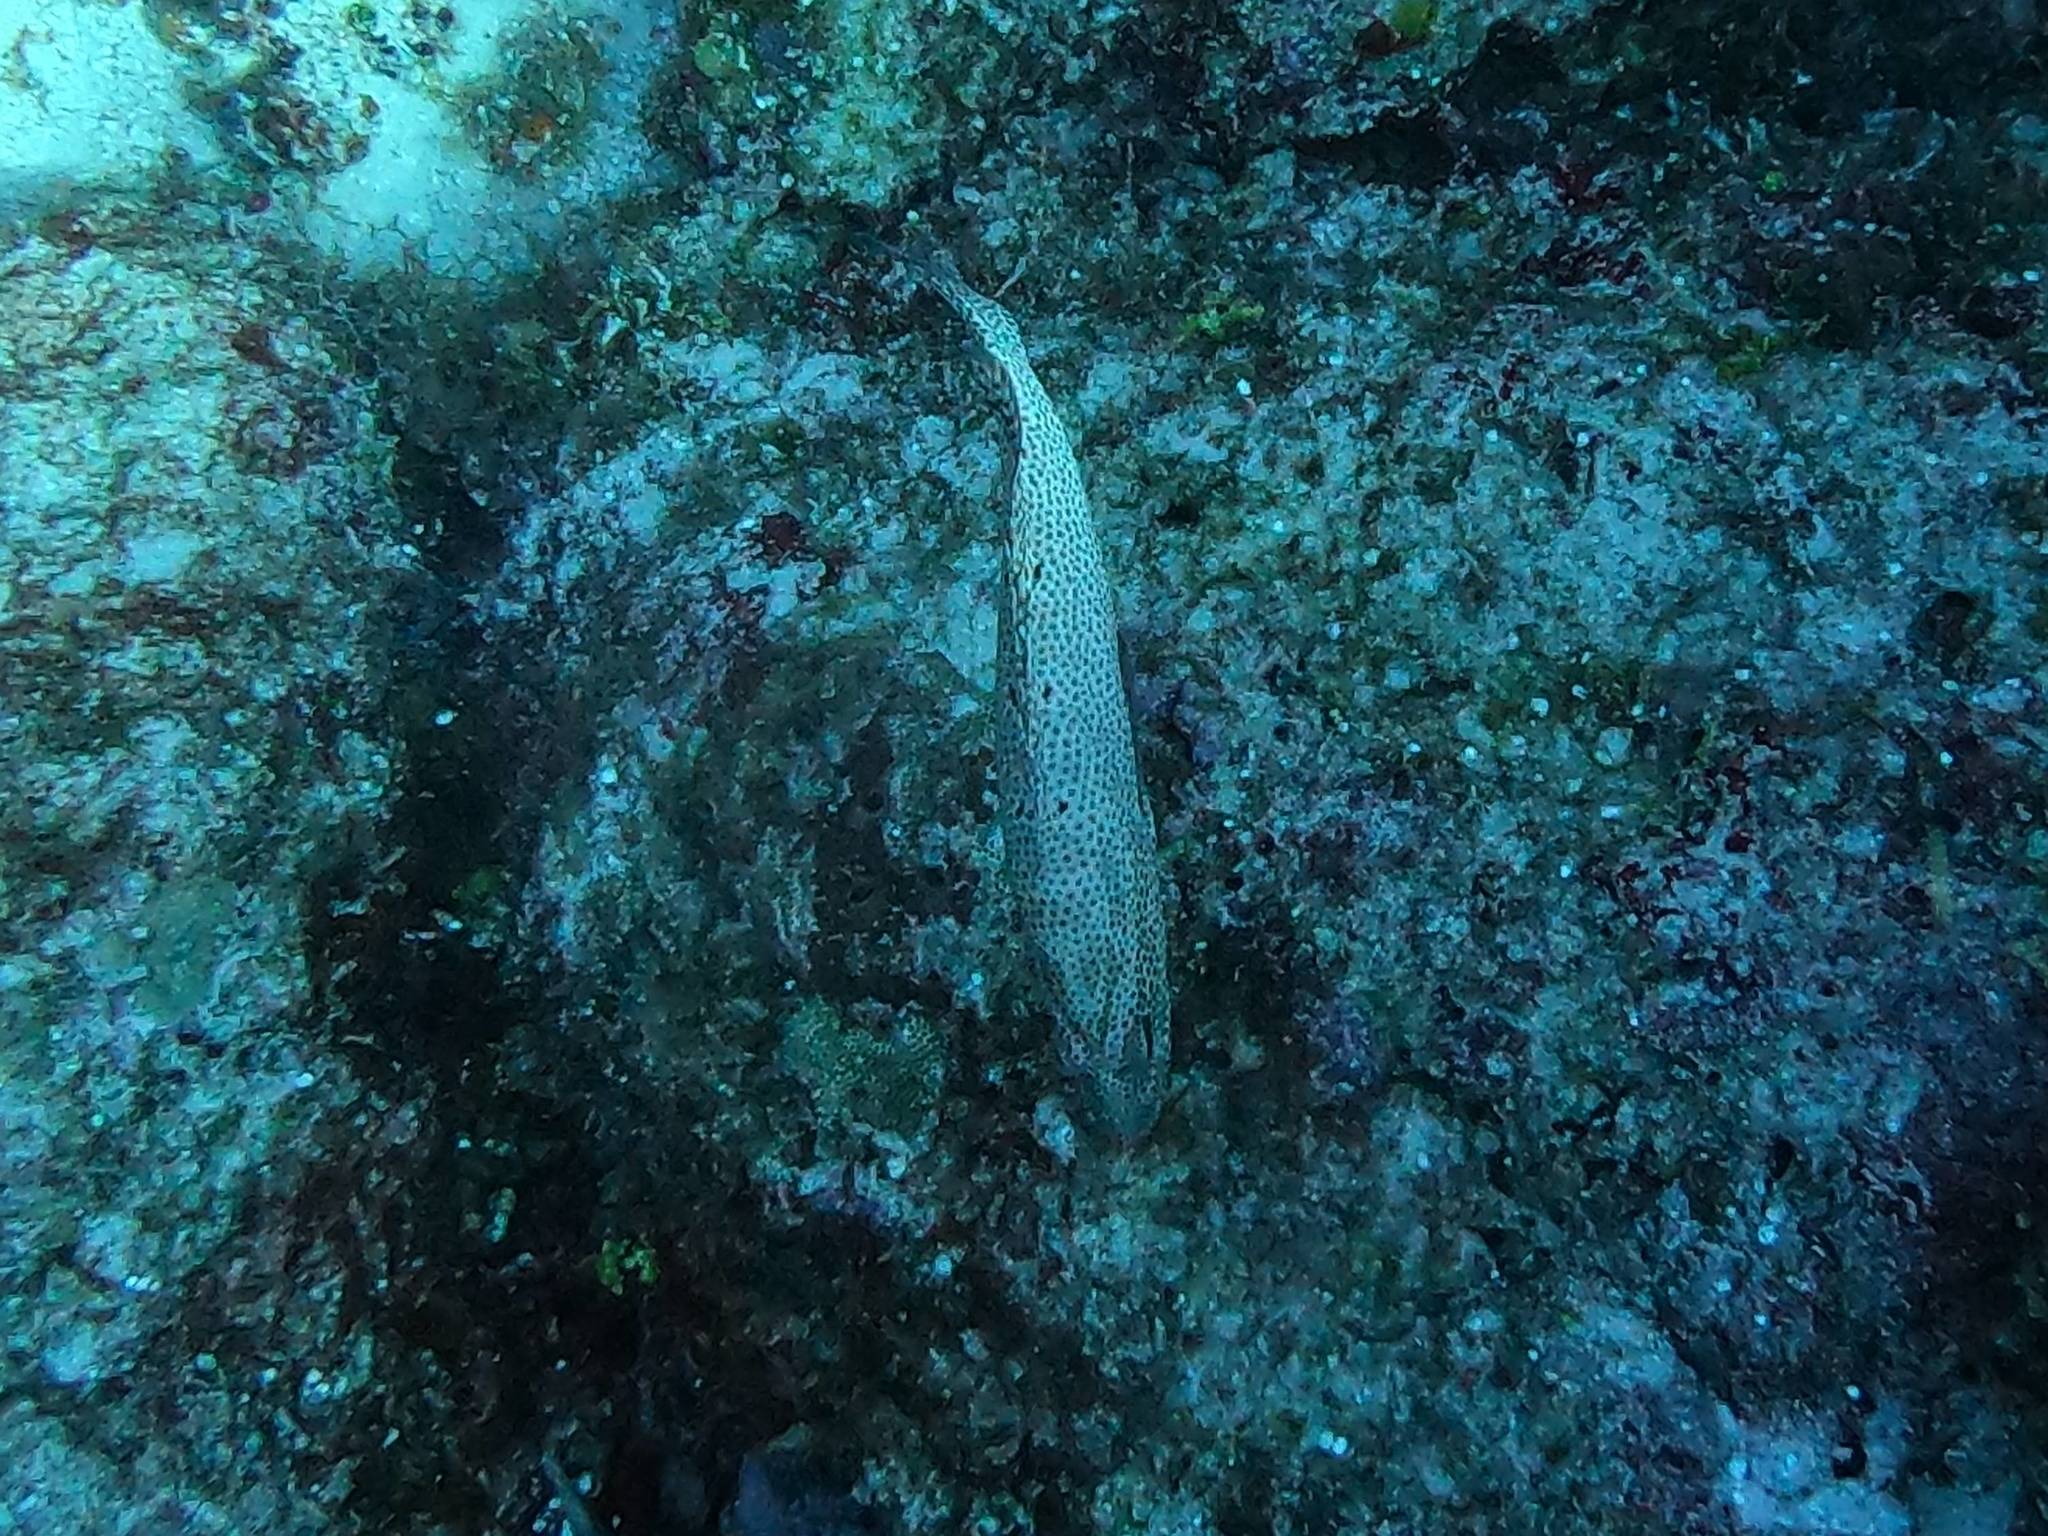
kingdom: Animalia
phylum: Chordata
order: Perciformes
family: Serranidae
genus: Cephalopholis
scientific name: Cephalopholis cruentata
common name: Graysby
